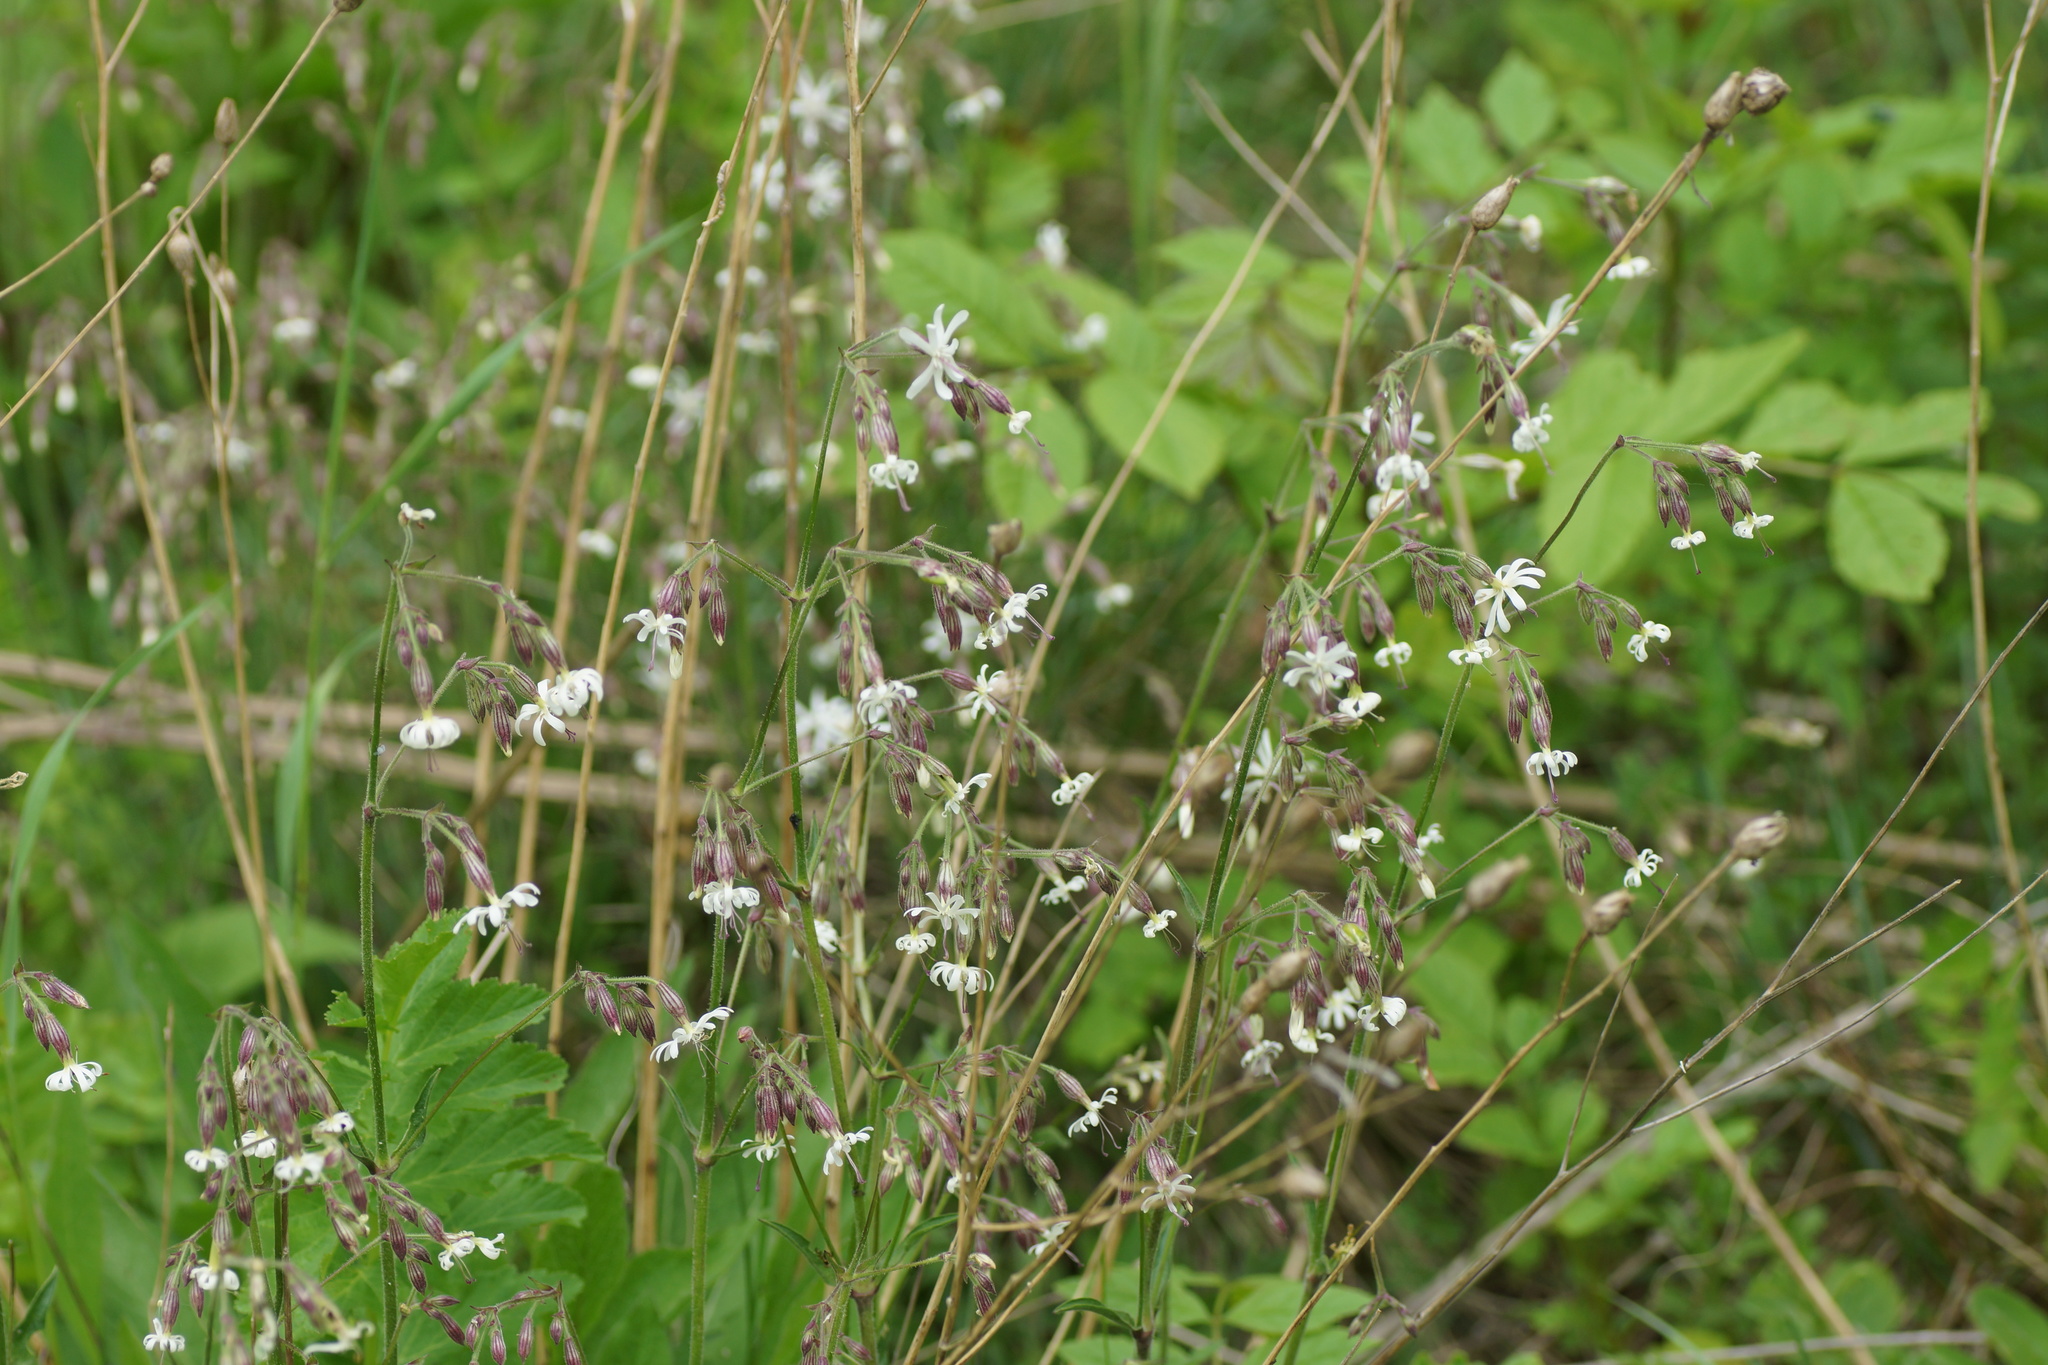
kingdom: Plantae
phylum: Tracheophyta
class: Magnoliopsida
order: Caryophyllales
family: Caryophyllaceae
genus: Silene
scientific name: Silene nutans
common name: Nottingham catchfly
